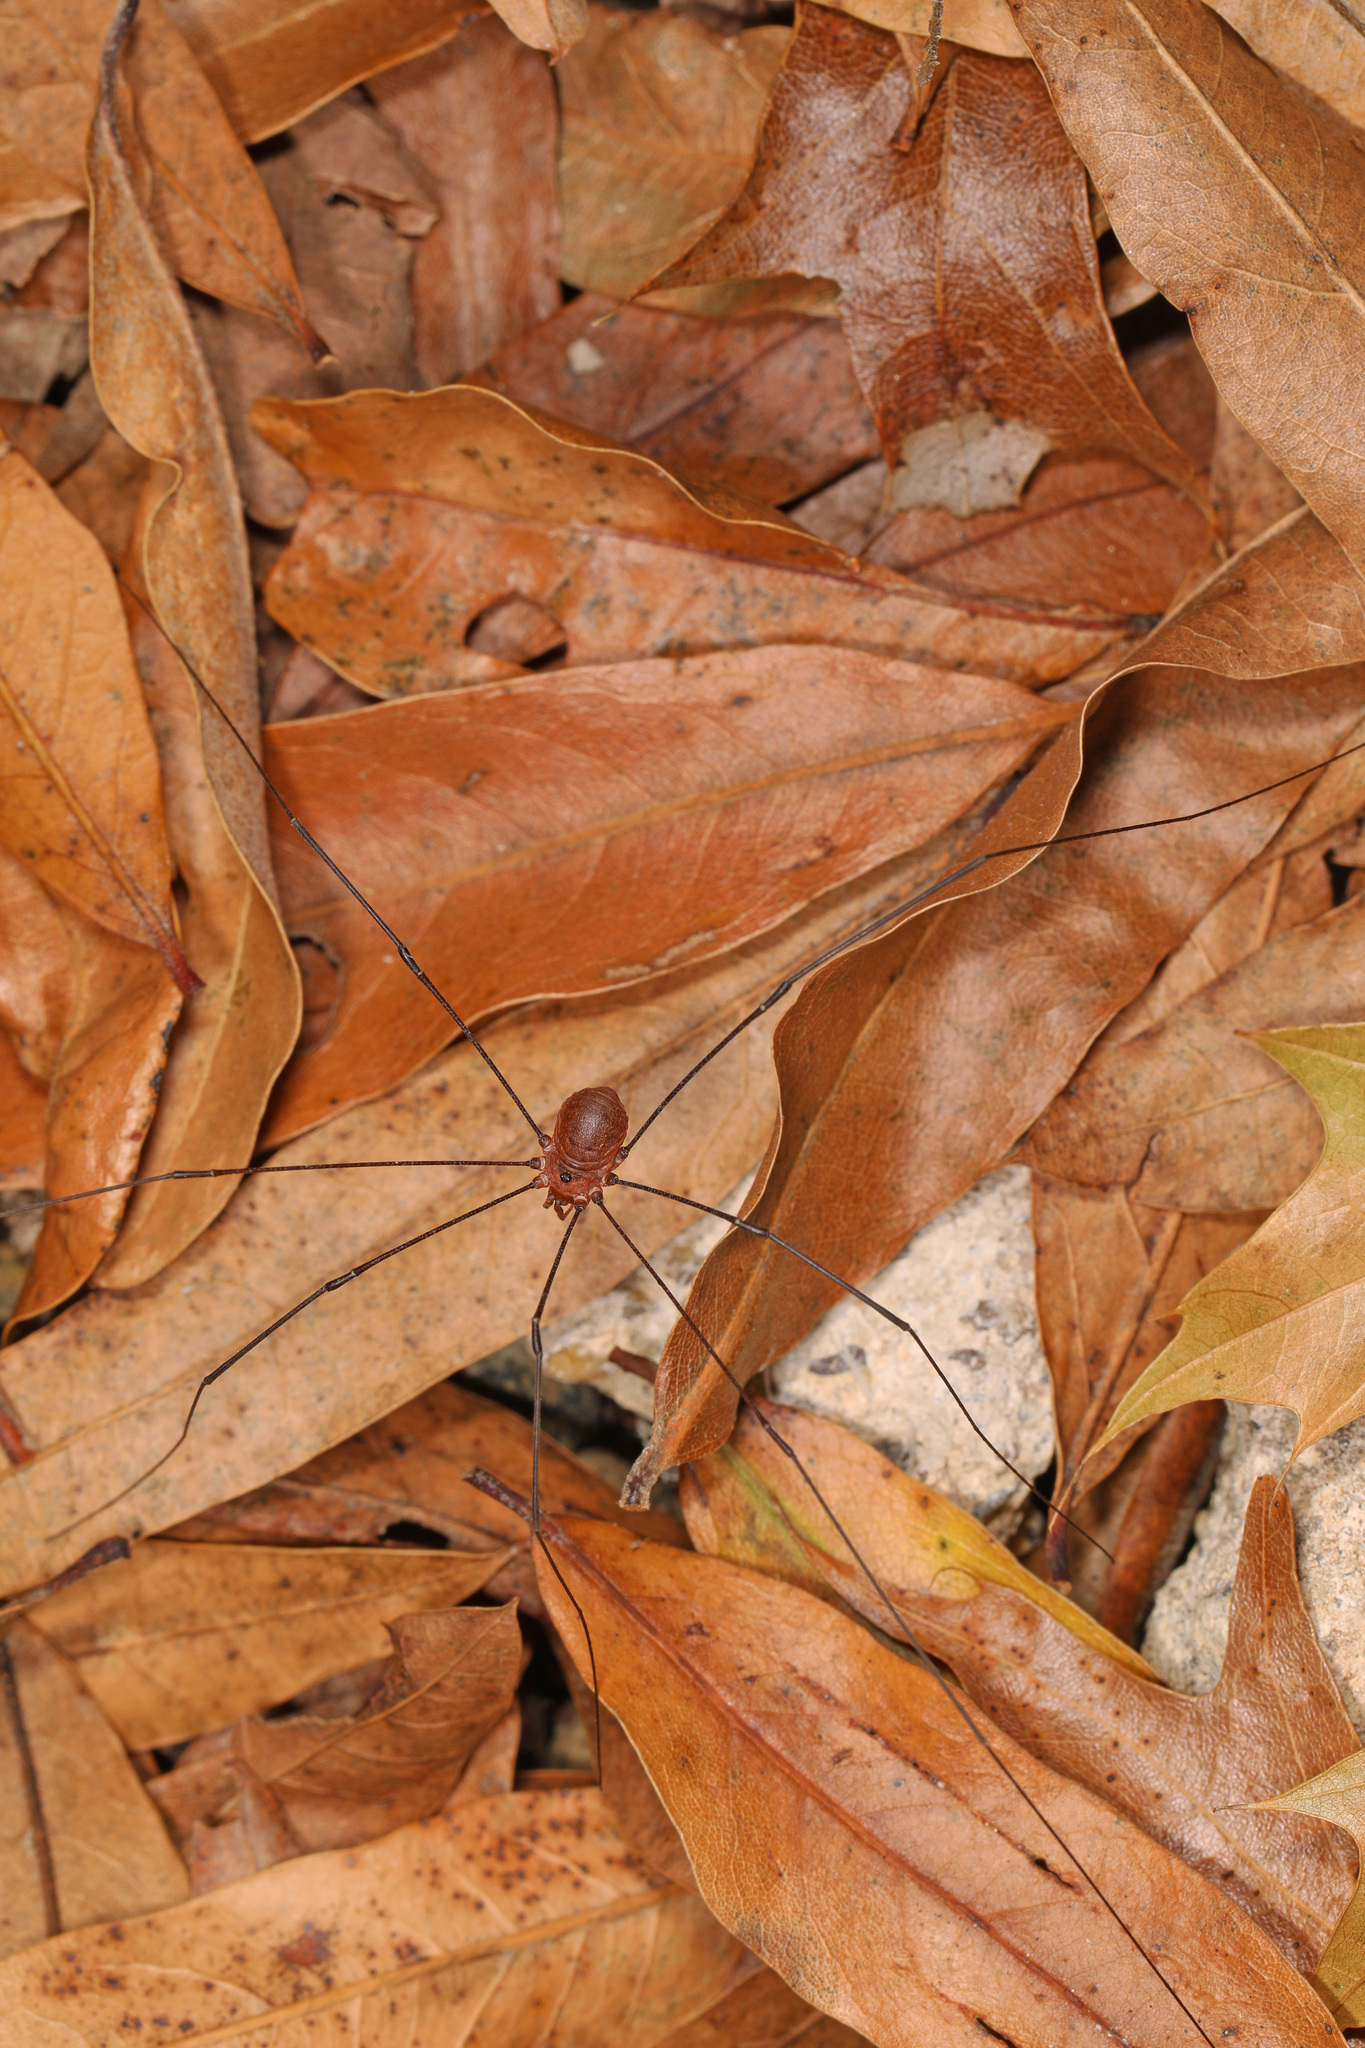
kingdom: Animalia
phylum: Arthropoda
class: Arachnida
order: Opiliones
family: Sclerosomatidae
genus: Leiobunum
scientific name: Leiobunum uxorium
